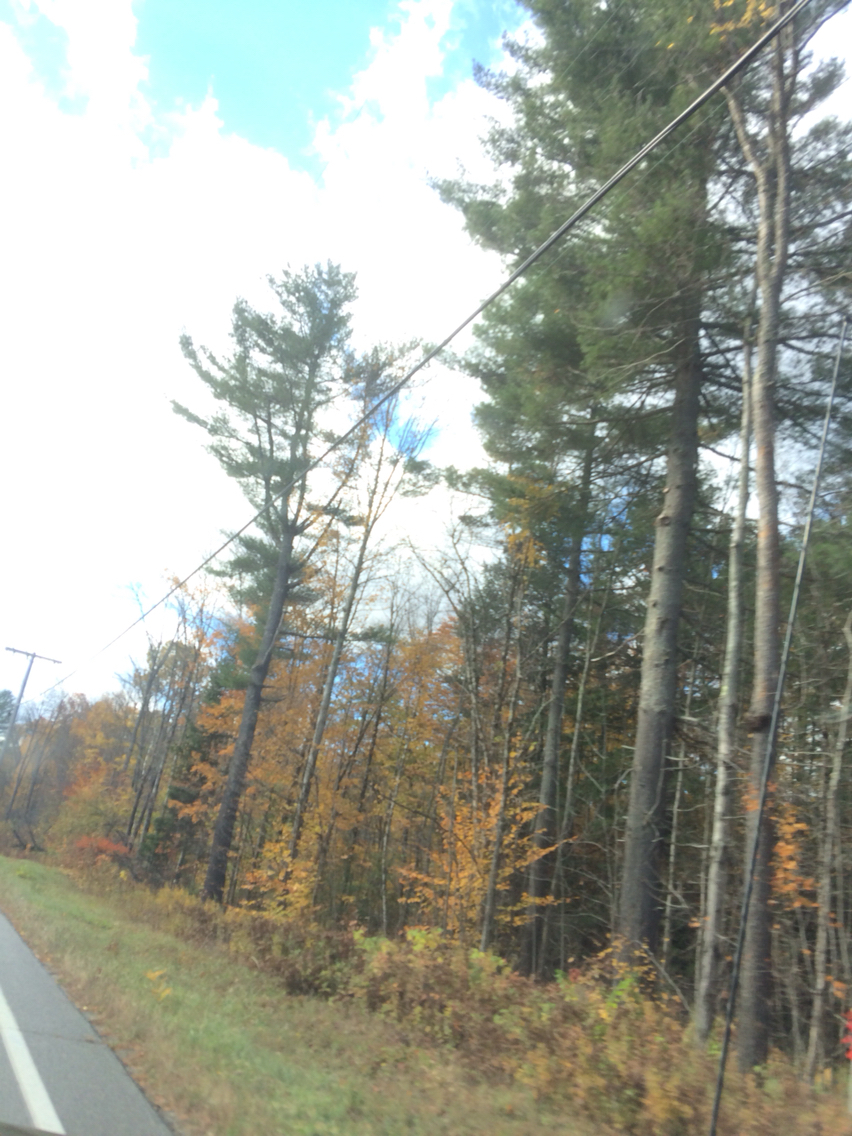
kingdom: Plantae
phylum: Tracheophyta
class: Pinopsida
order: Pinales
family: Pinaceae
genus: Pinus
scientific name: Pinus strobus
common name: Weymouth pine
